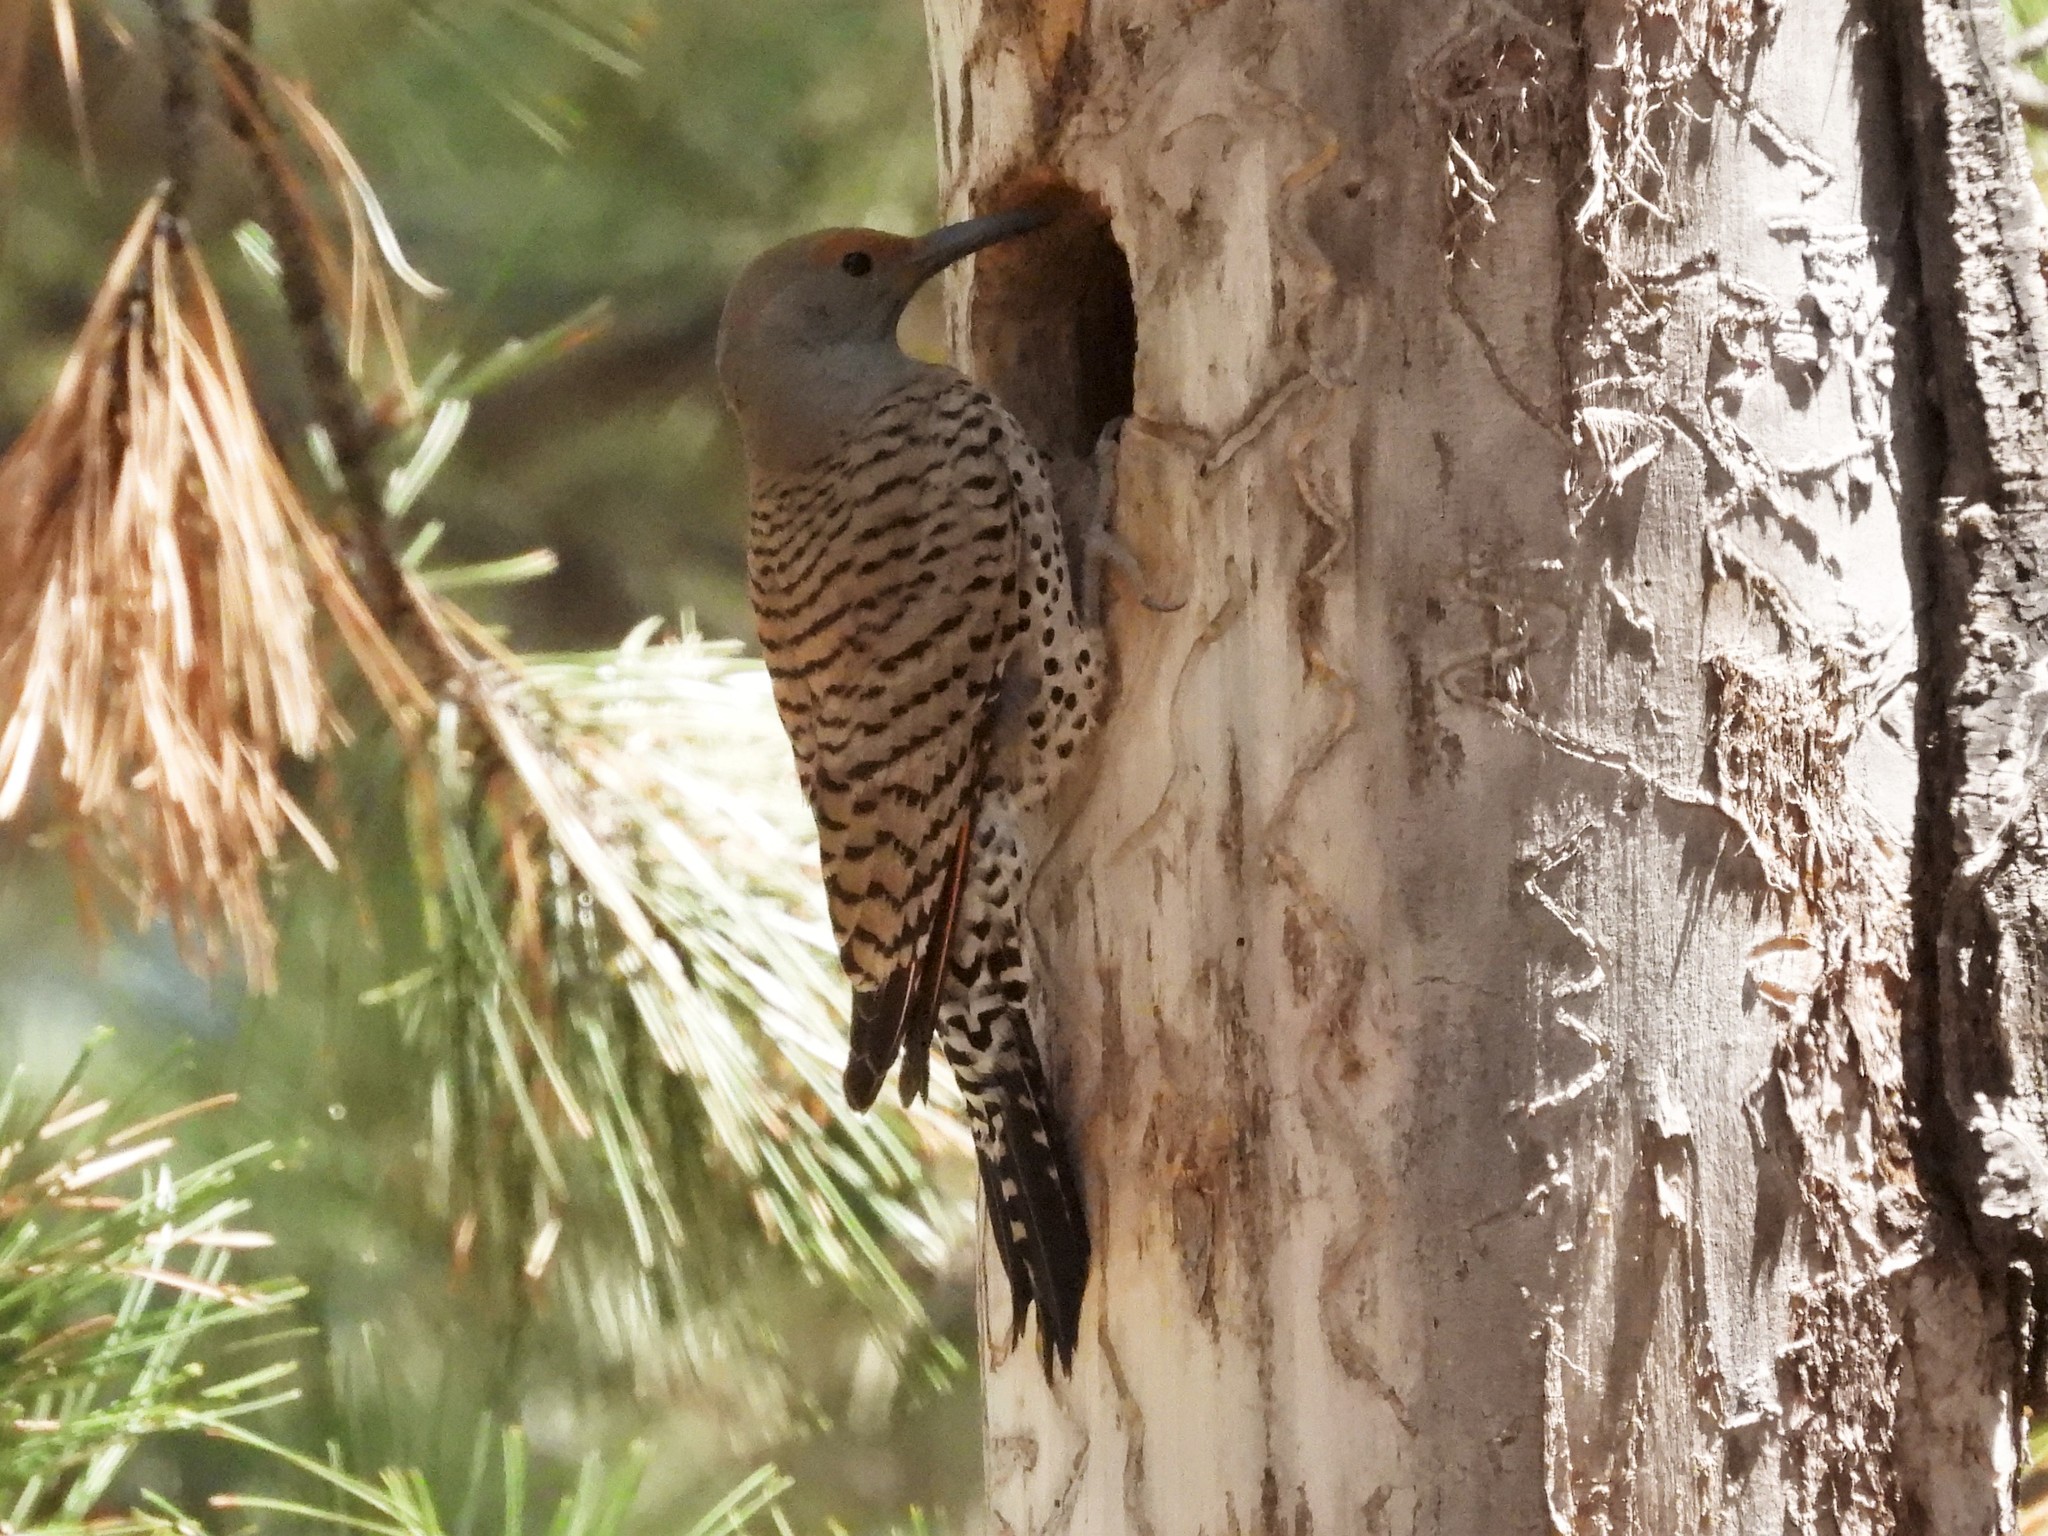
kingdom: Animalia
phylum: Chordata
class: Aves
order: Piciformes
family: Picidae
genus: Colaptes
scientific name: Colaptes auratus
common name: Northern flicker
